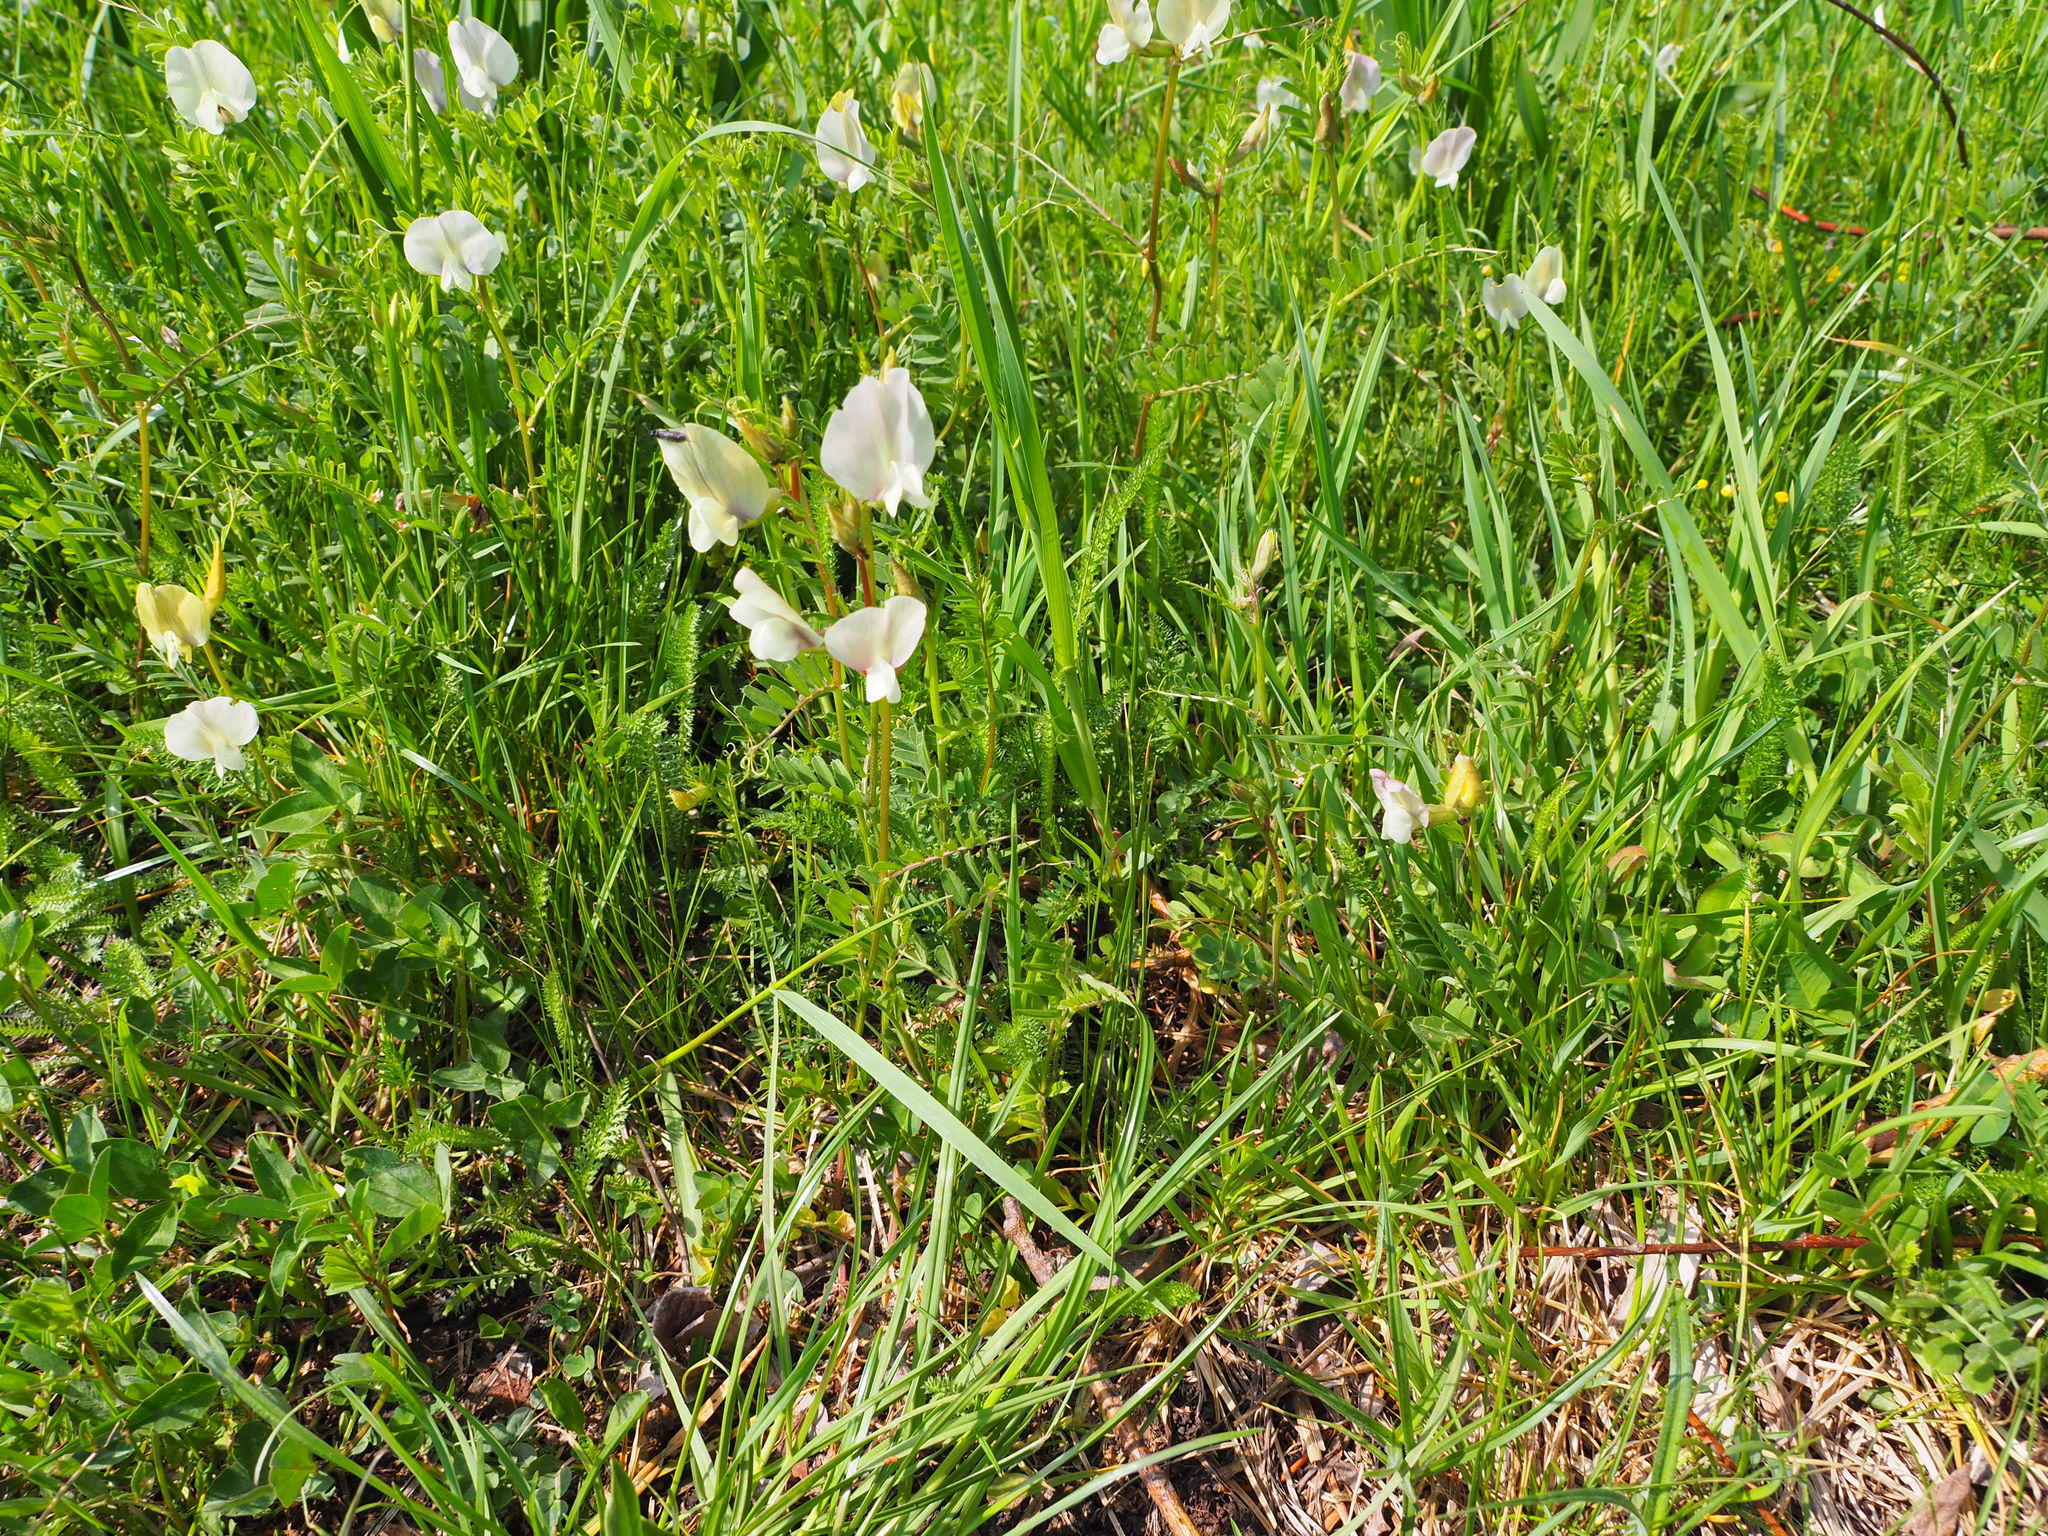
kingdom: Plantae
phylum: Tracheophyta
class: Magnoliopsida
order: Fabales
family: Fabaceae
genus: Vicia
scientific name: Vicia grandiflora
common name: Large yellow vetch
